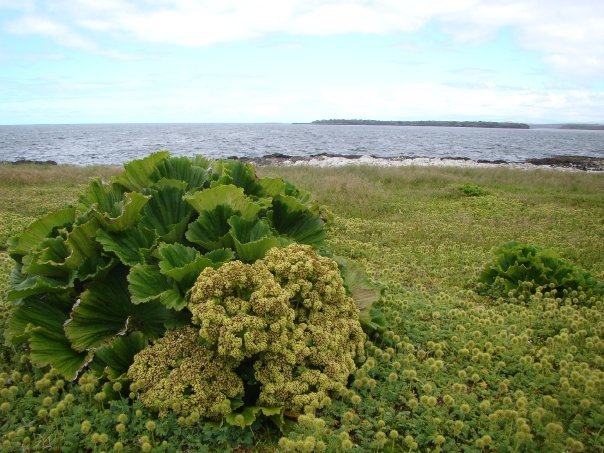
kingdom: Plantae
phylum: Tracheophyta
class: Magnoliopsida
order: Apiales
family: Apiaceae
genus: Azorella
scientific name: Azorella polaris
